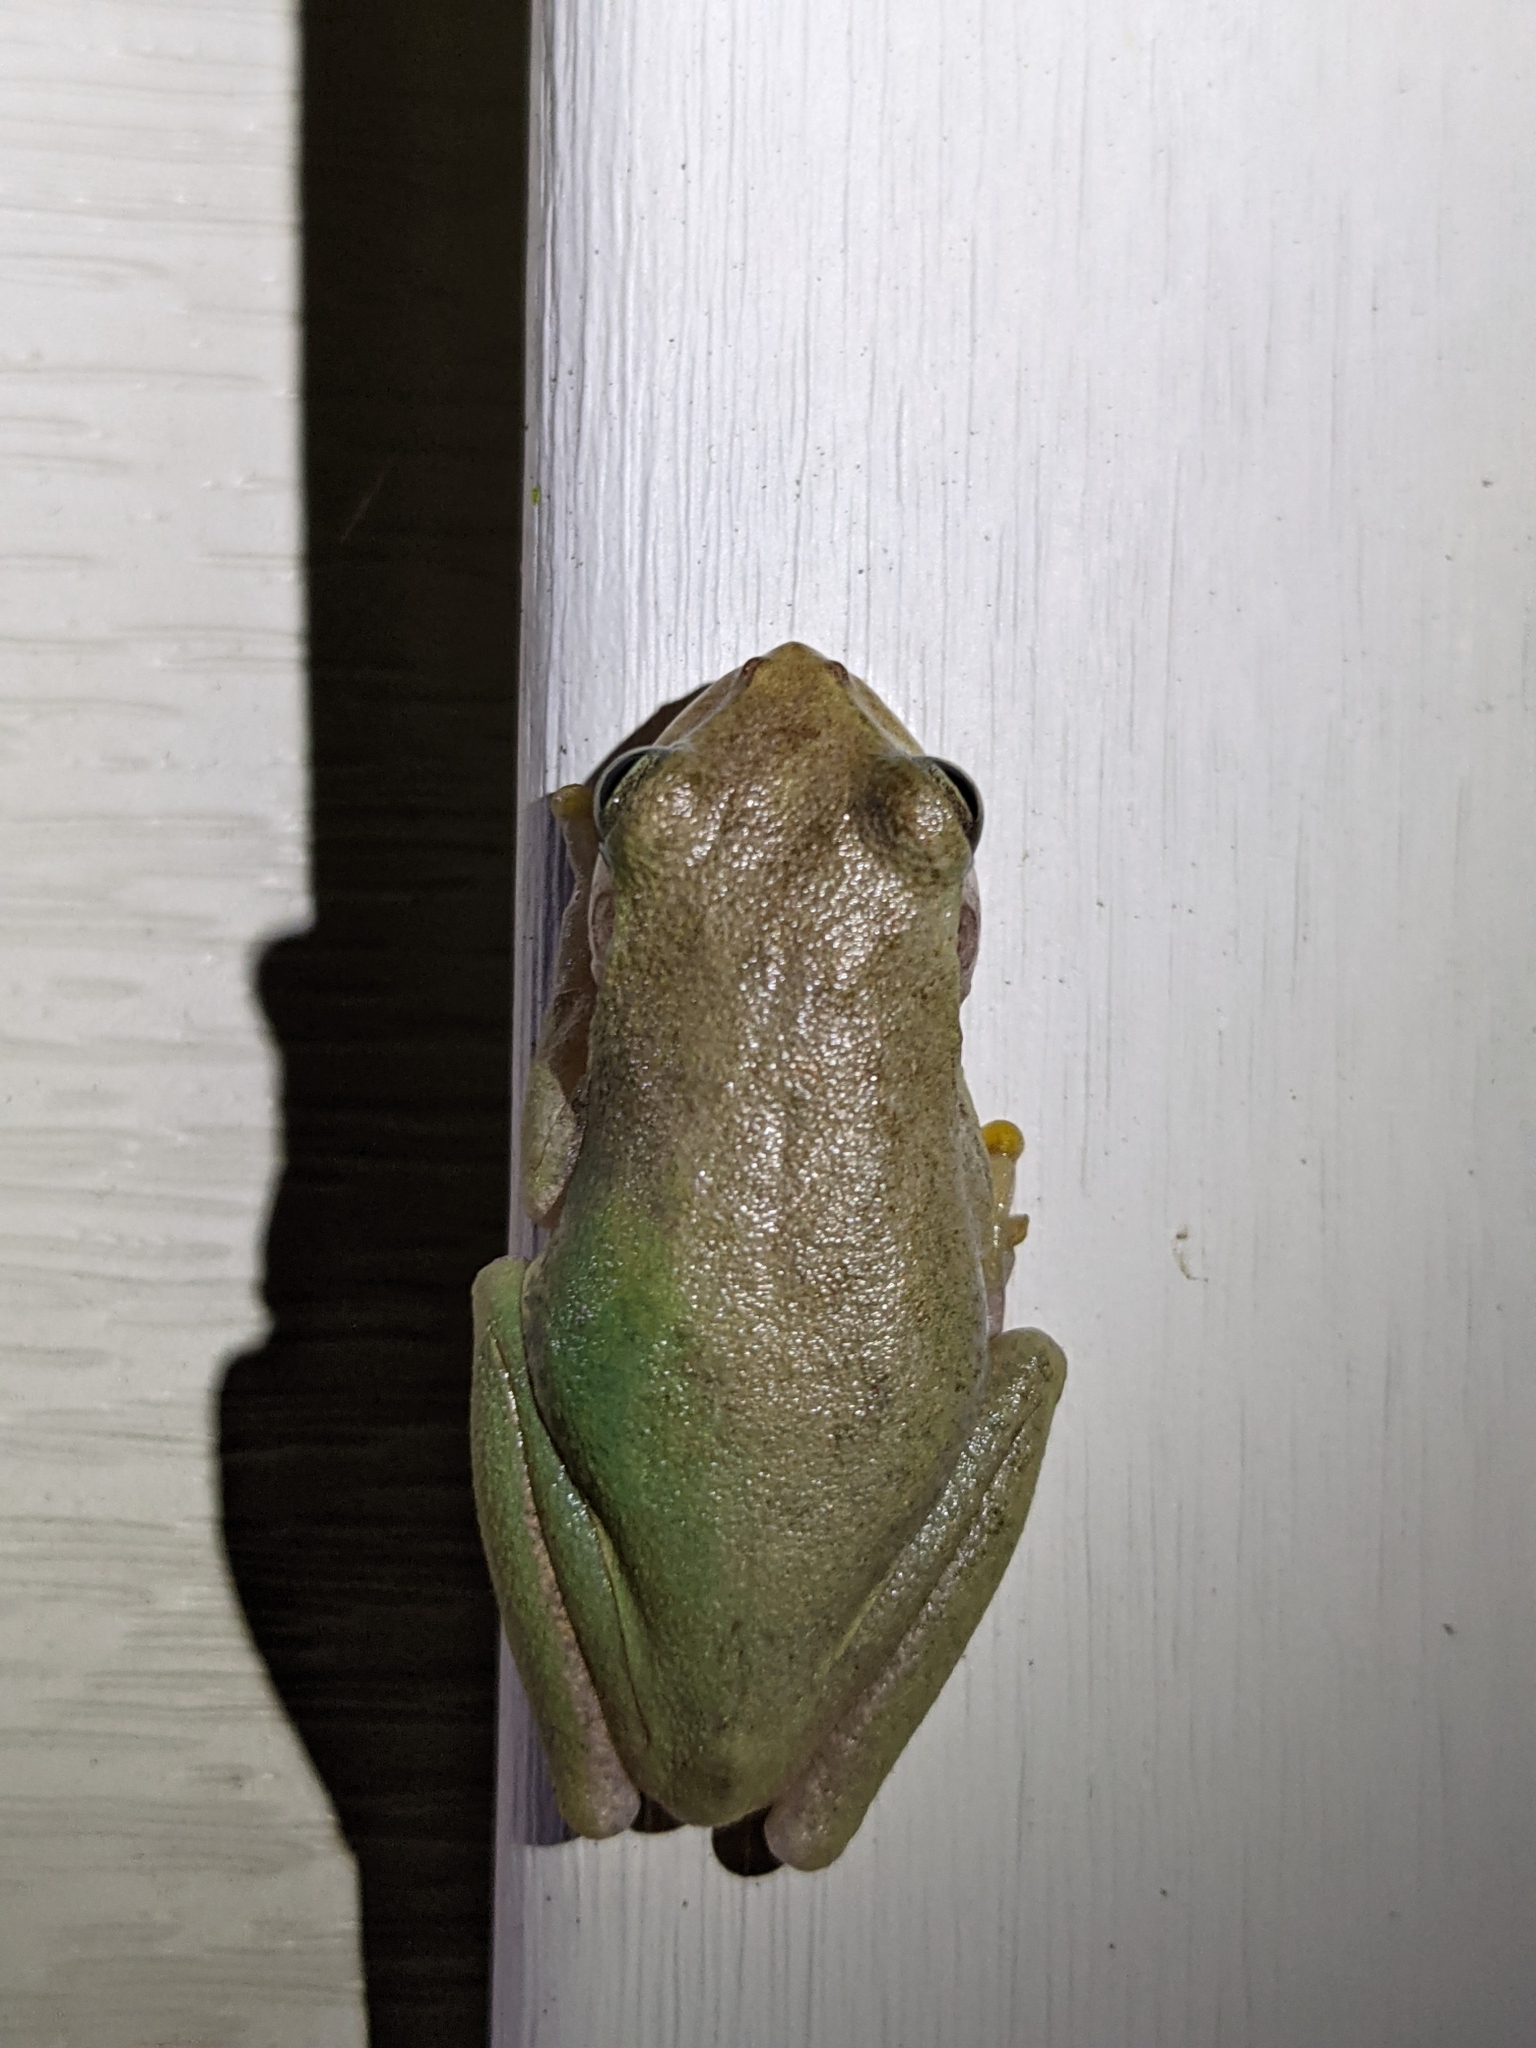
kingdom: Animalia
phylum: Chordata
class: Amphibia
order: Anura
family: Hylidae
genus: Dryophytes
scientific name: Dryophytes squirellus
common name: Squirrel treefrog
